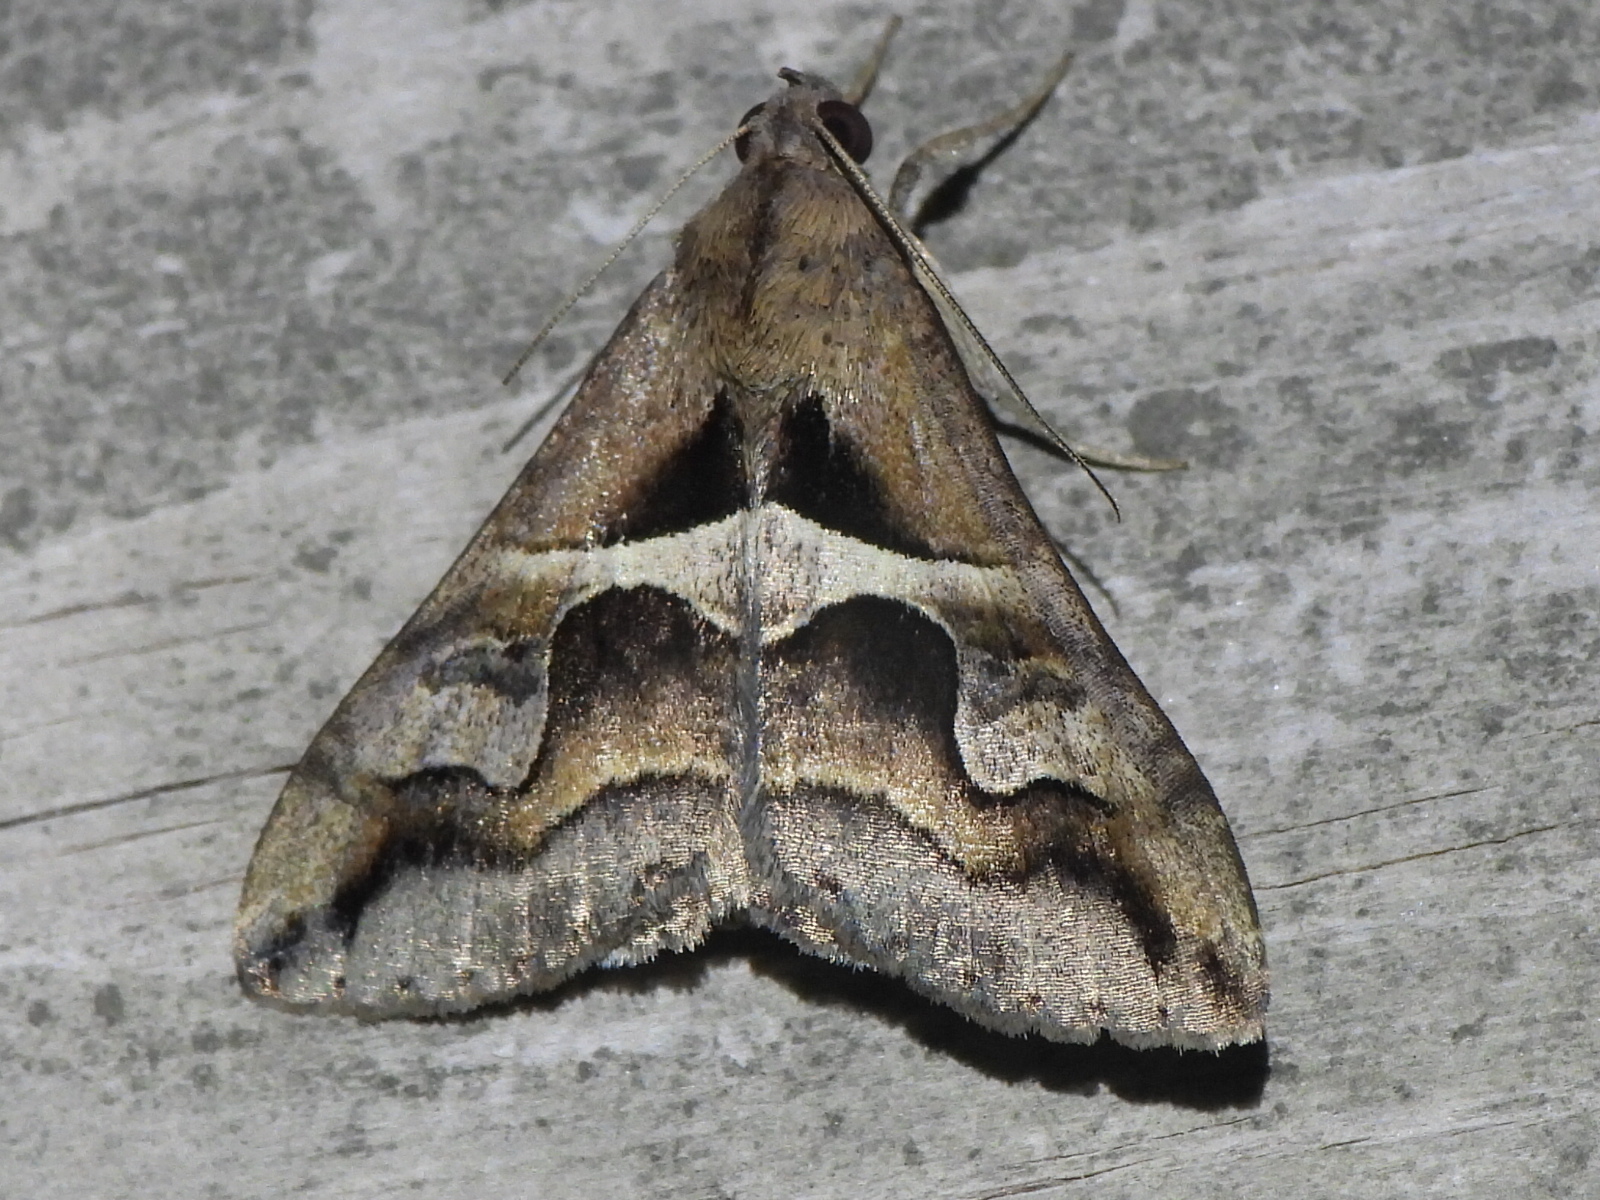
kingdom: Animalia
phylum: Arthropoda
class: Insecta
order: Lepidoptera
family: Erebidae
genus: Melipotis
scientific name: Melipotis cellaris
